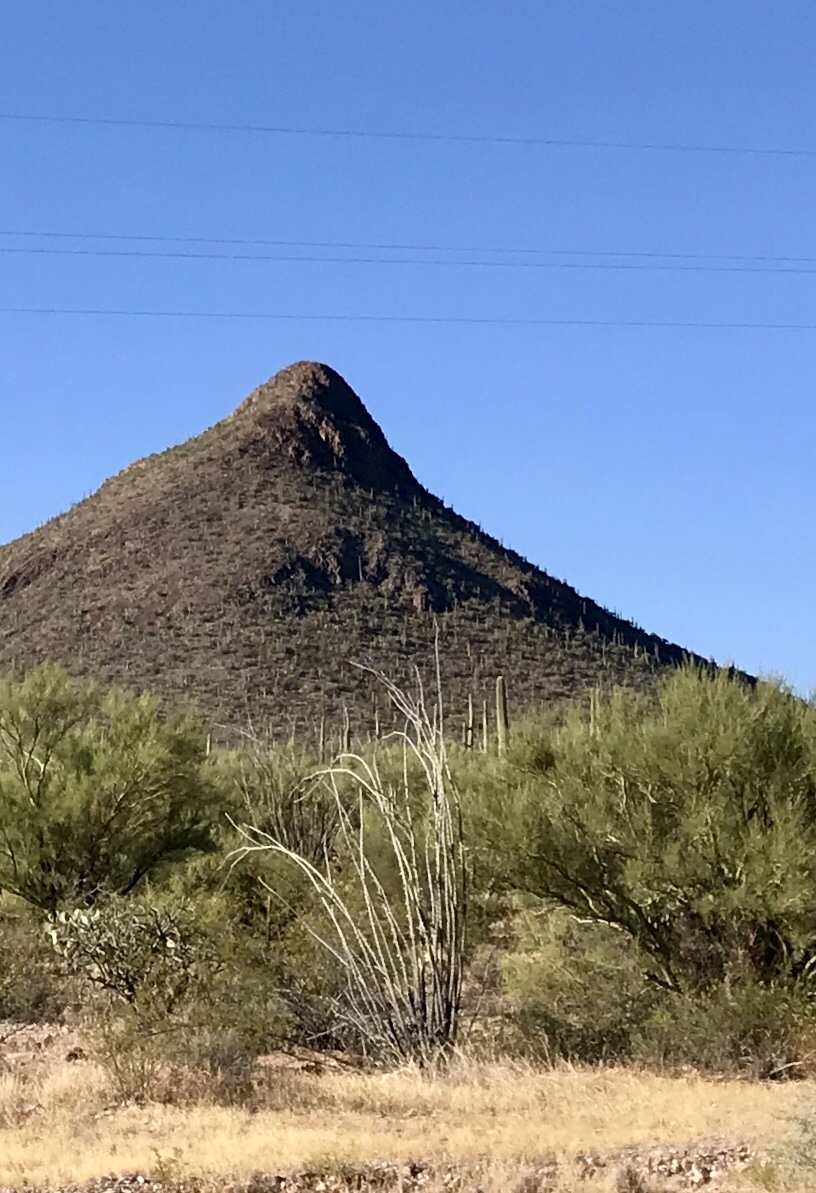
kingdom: Plantae
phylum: Tracheophyta
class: Magnoliopsida
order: Ericales
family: Fouquieriaceae
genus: Fouquieria
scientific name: Fouquieria splendens
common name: Vine-cactus
